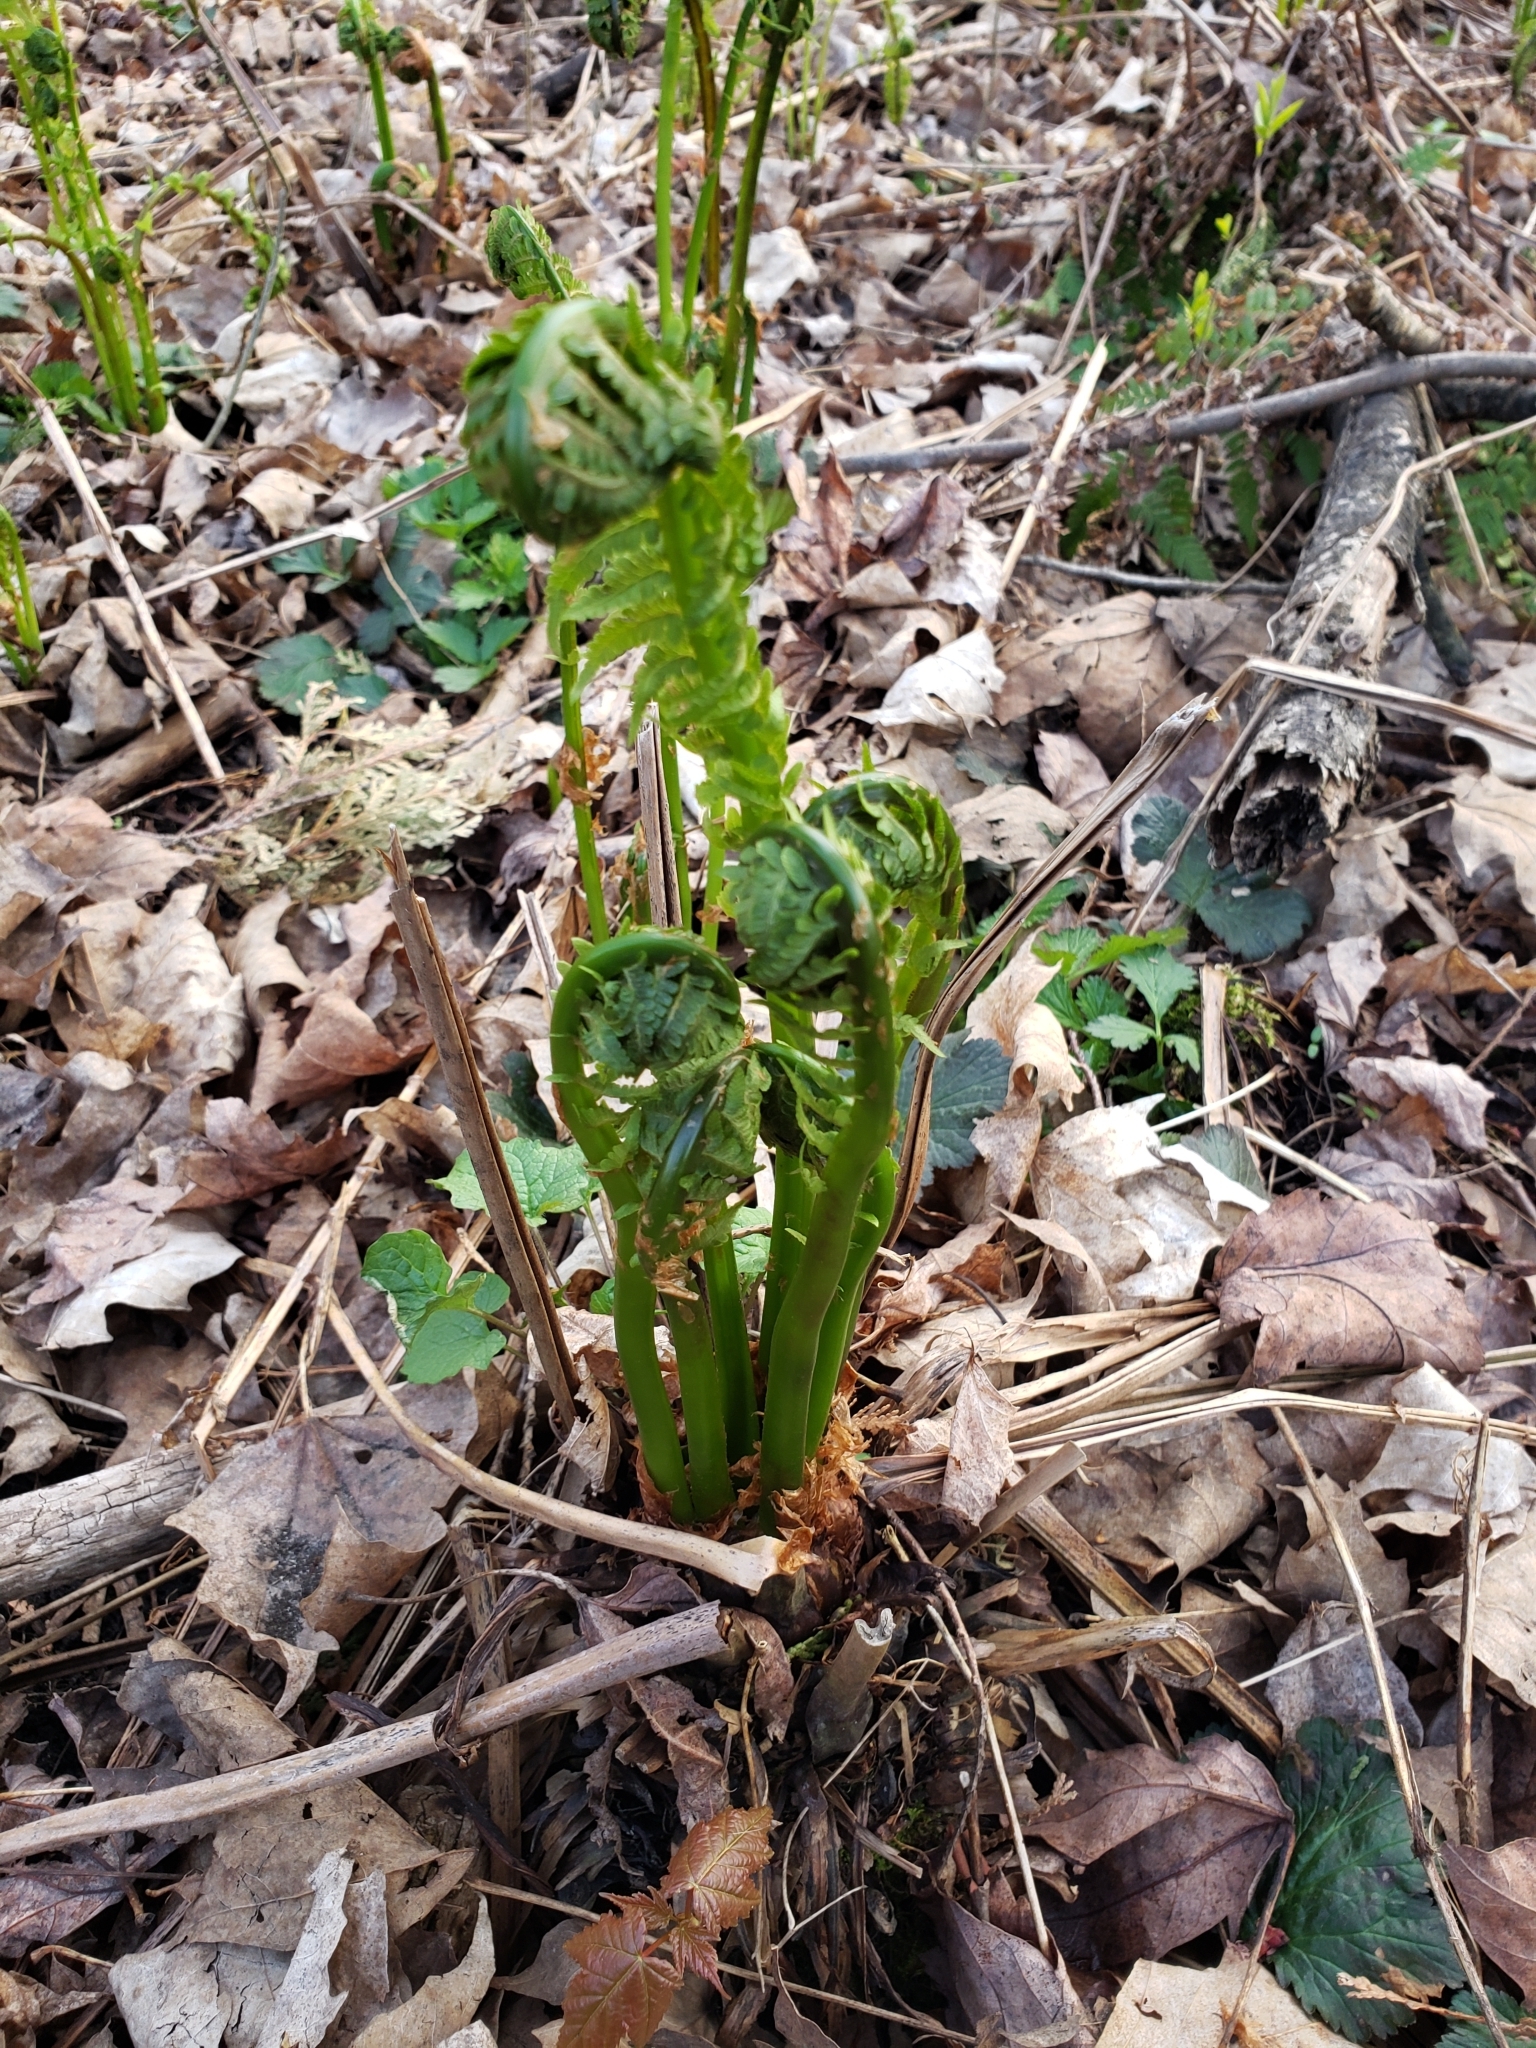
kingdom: Plantae
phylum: Tracheophyta
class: Polypodiopsida
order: Polypodiales
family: Onocleaceae
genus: Matteuccia
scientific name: Matteuccia struthiopteris
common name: Ostrich fern
